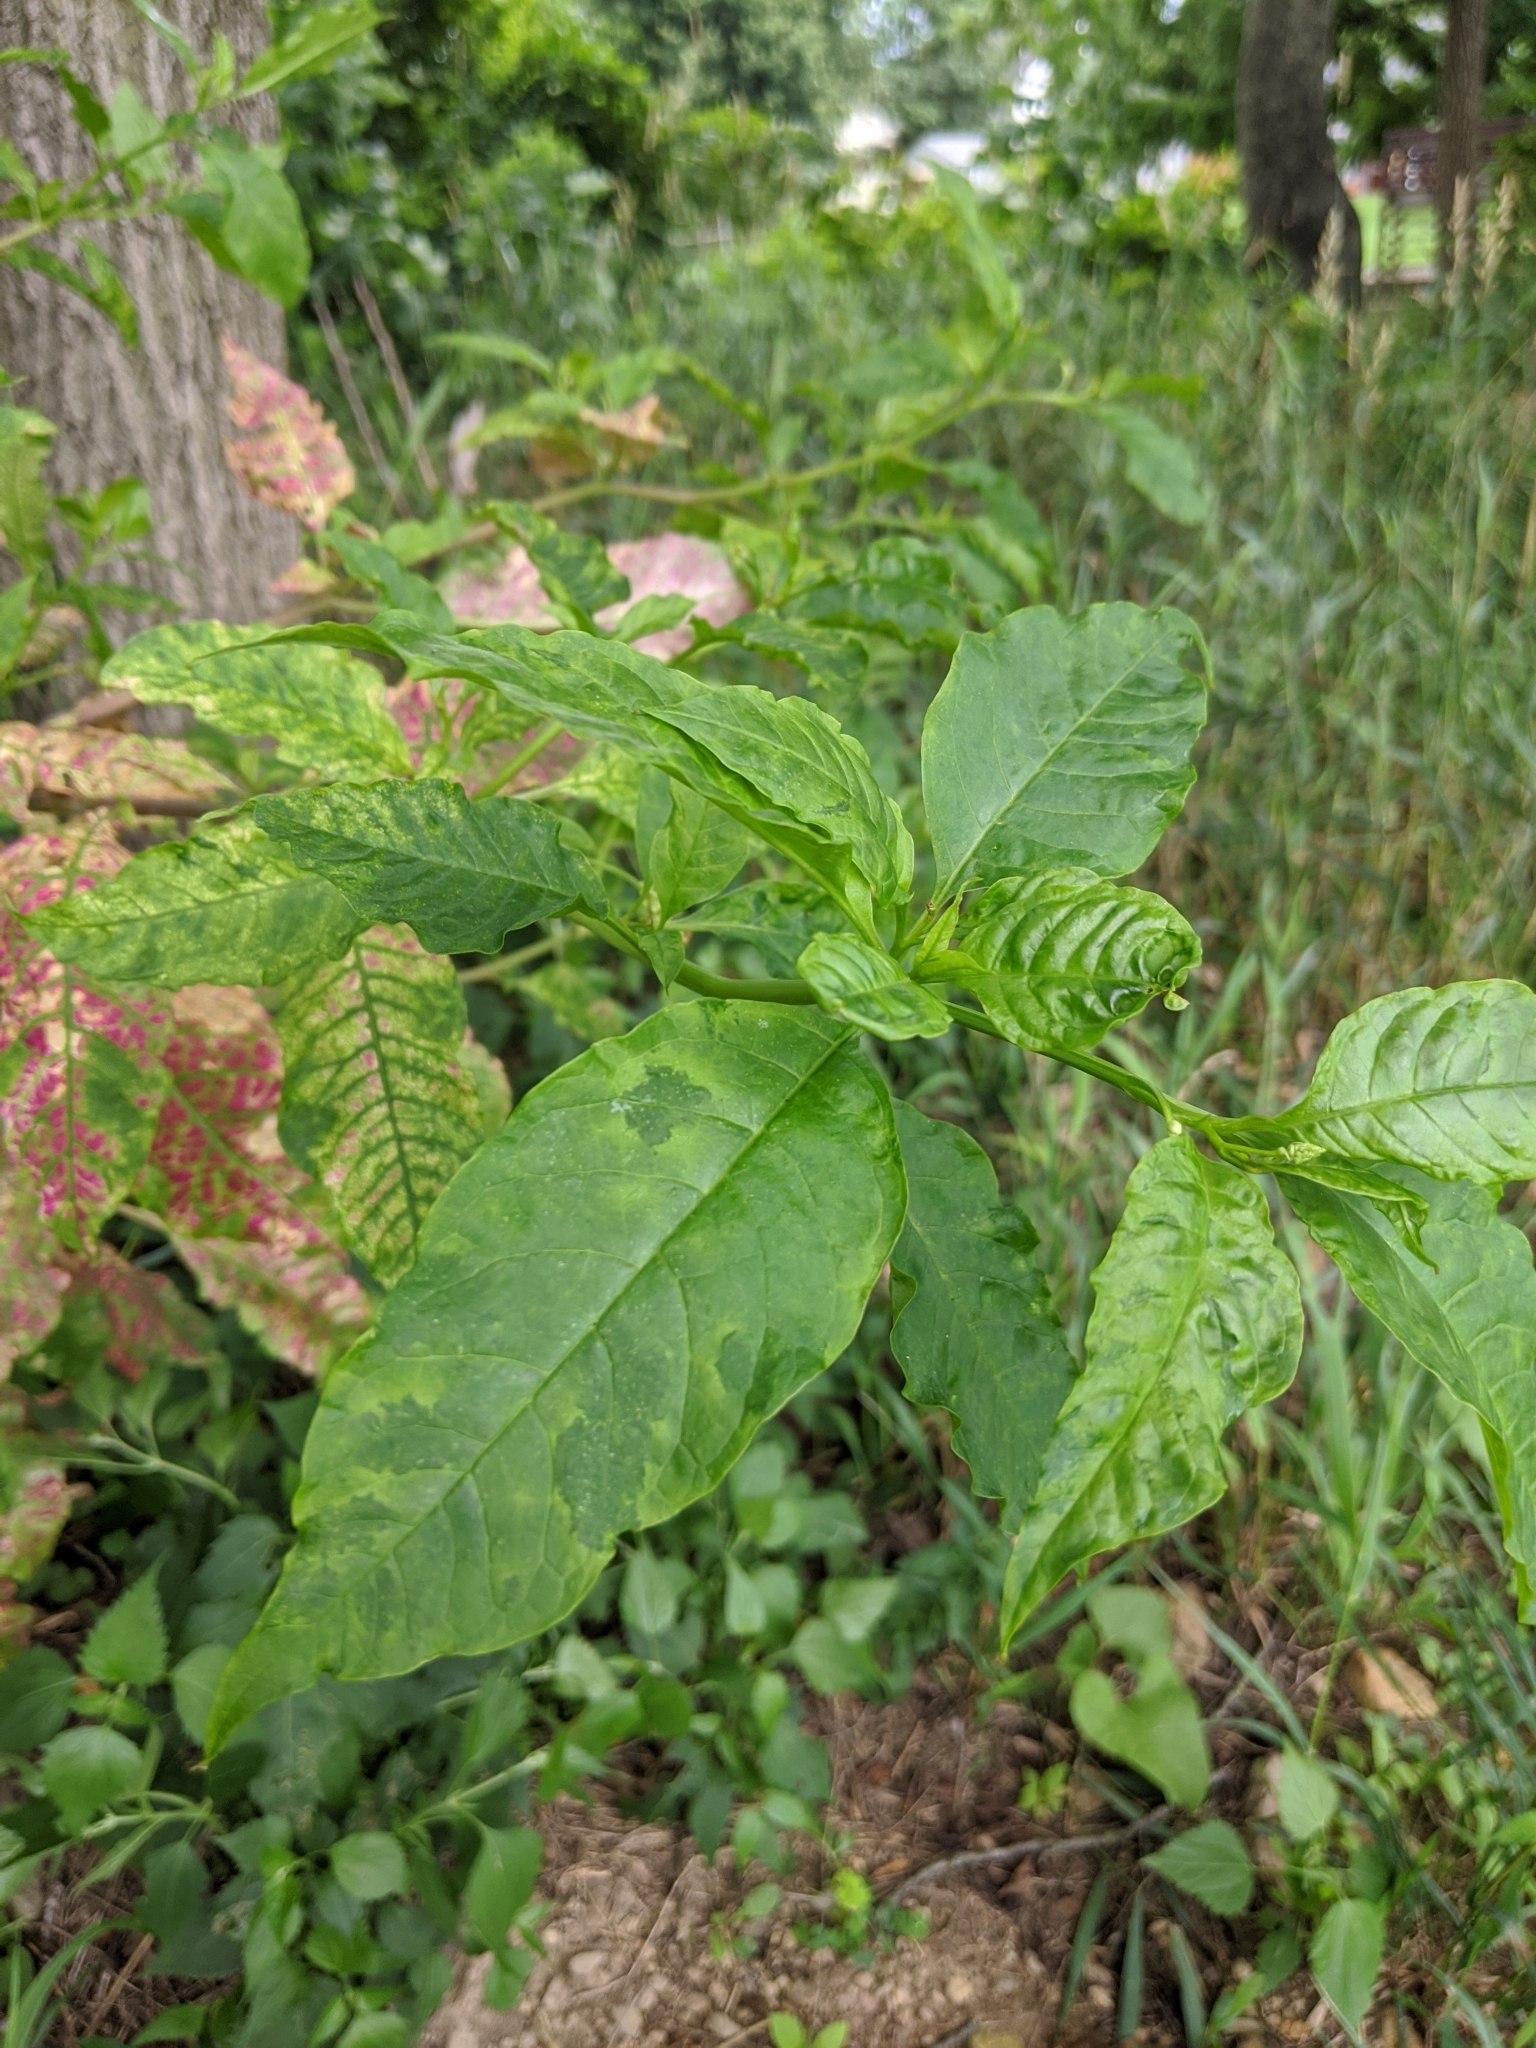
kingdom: Viruses
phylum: Pisuviricota
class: Stelpaviricetes
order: Patatavirales
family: Potyviridae
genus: Potyvirus
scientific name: Potyvirus Pokeweed mosaic virus
